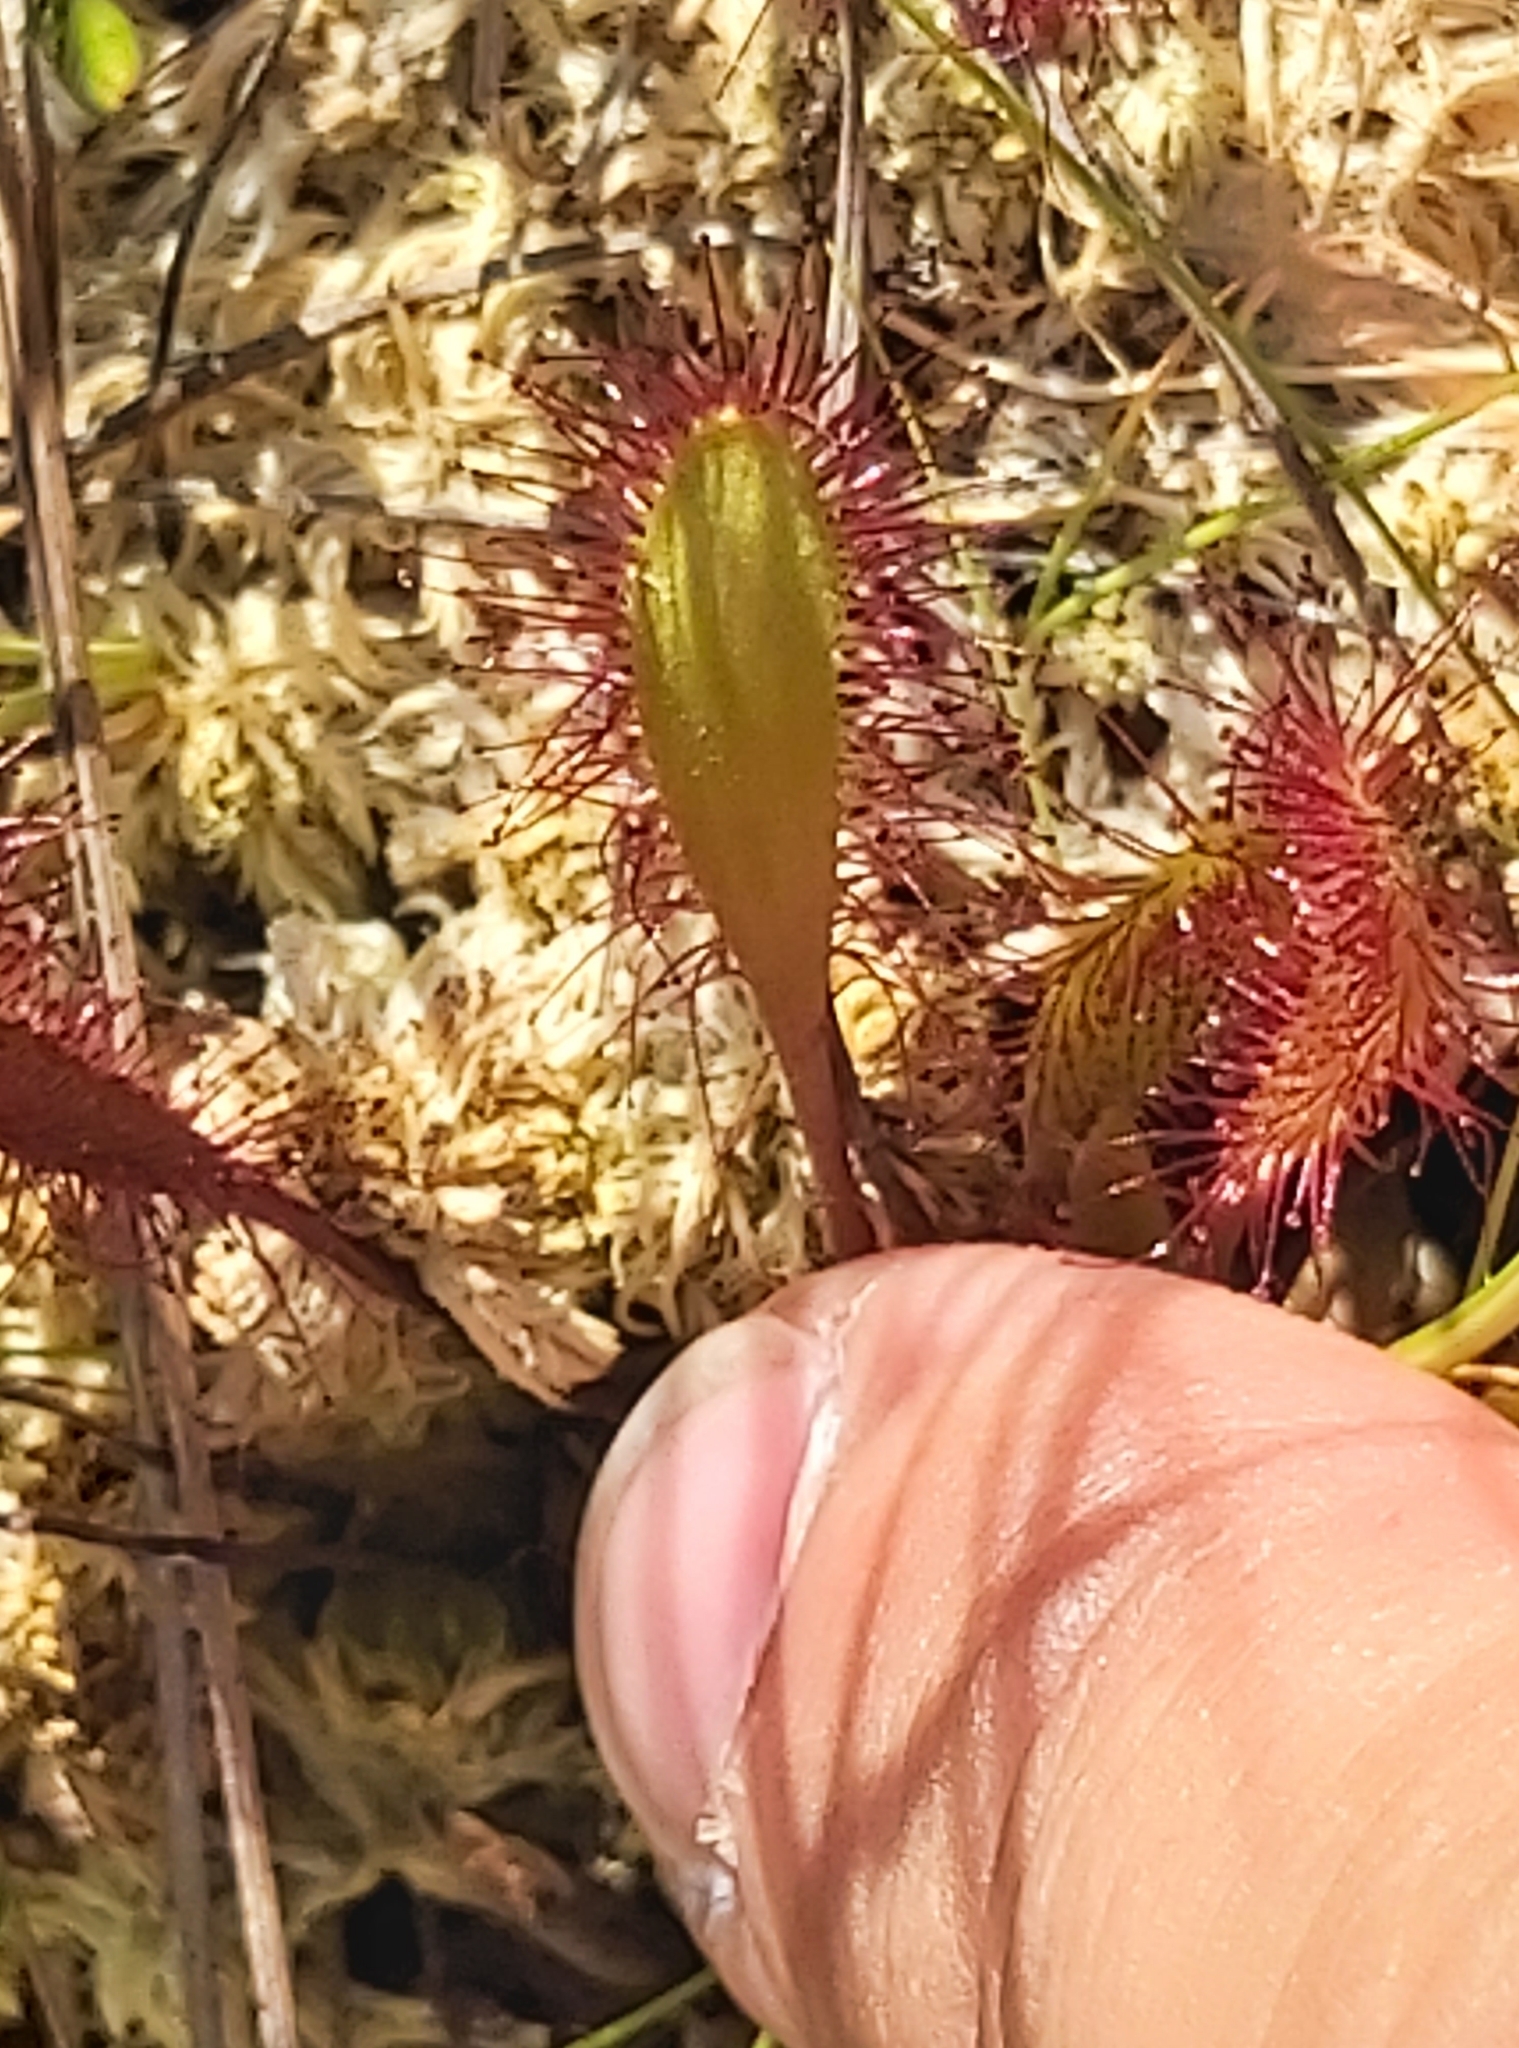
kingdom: Plantae
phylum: Tracheophyta
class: Magnoliopsida
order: Caryophyllales
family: Droseraceae
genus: Drosera
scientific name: Drosera anglica
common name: Great sundew
